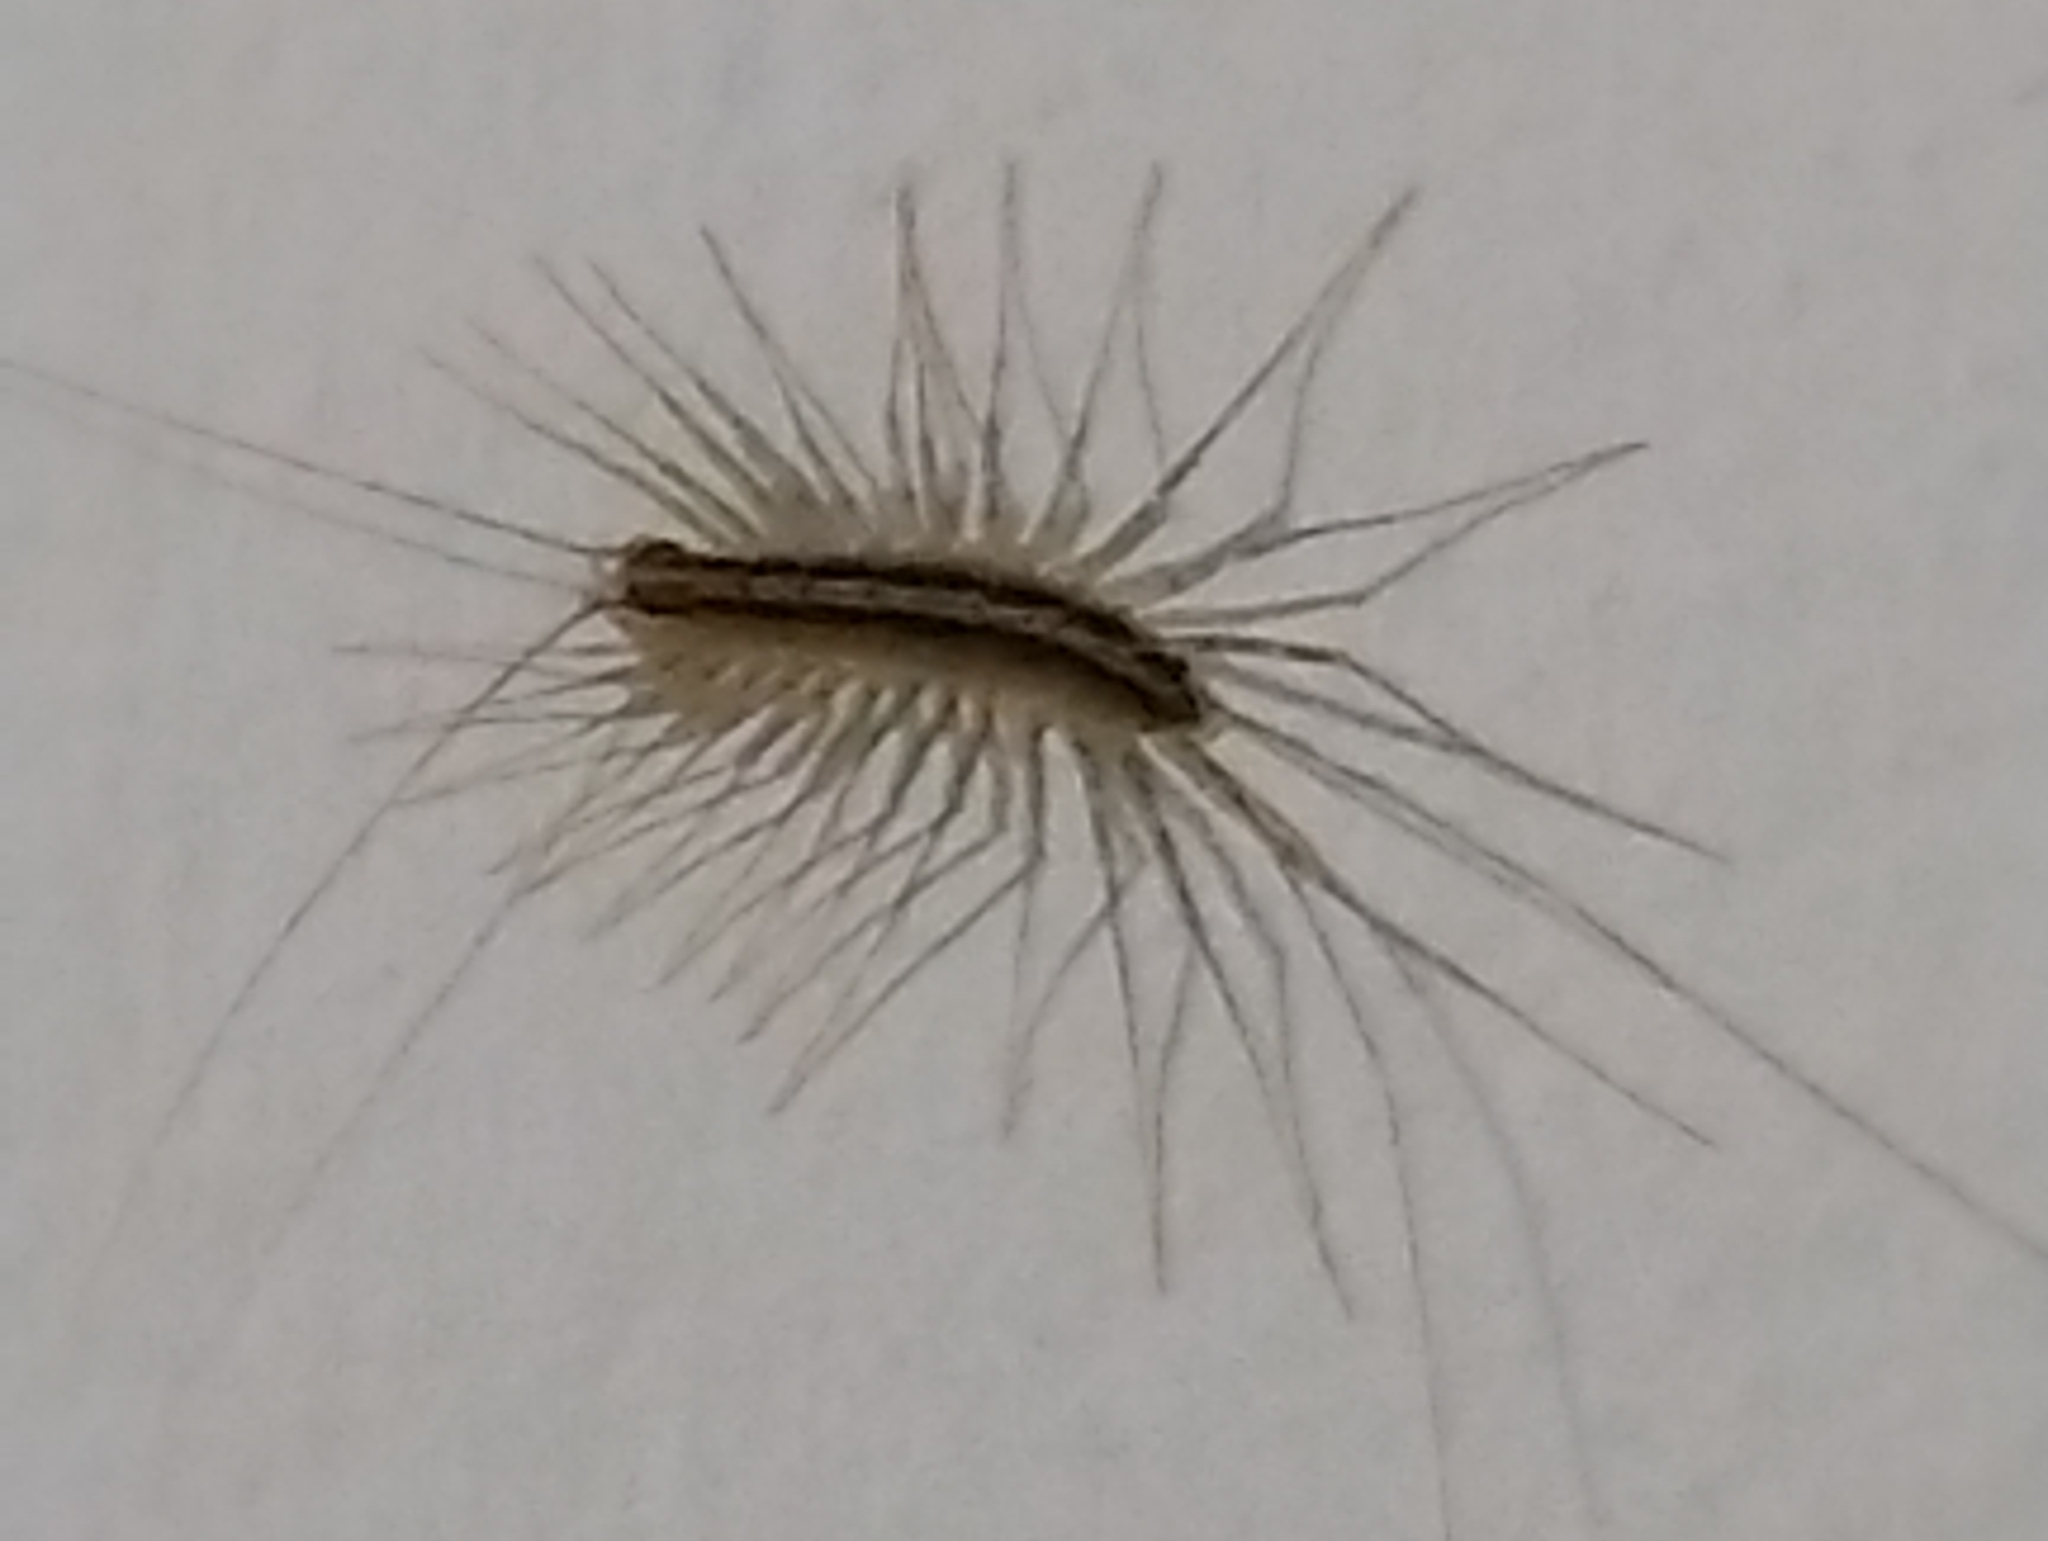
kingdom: Animalia
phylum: Arthropoda
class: Chilopoda
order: Scutigeromorpha
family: Pselliodidae
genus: Sphendononema
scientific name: Sphendononema guildingii
